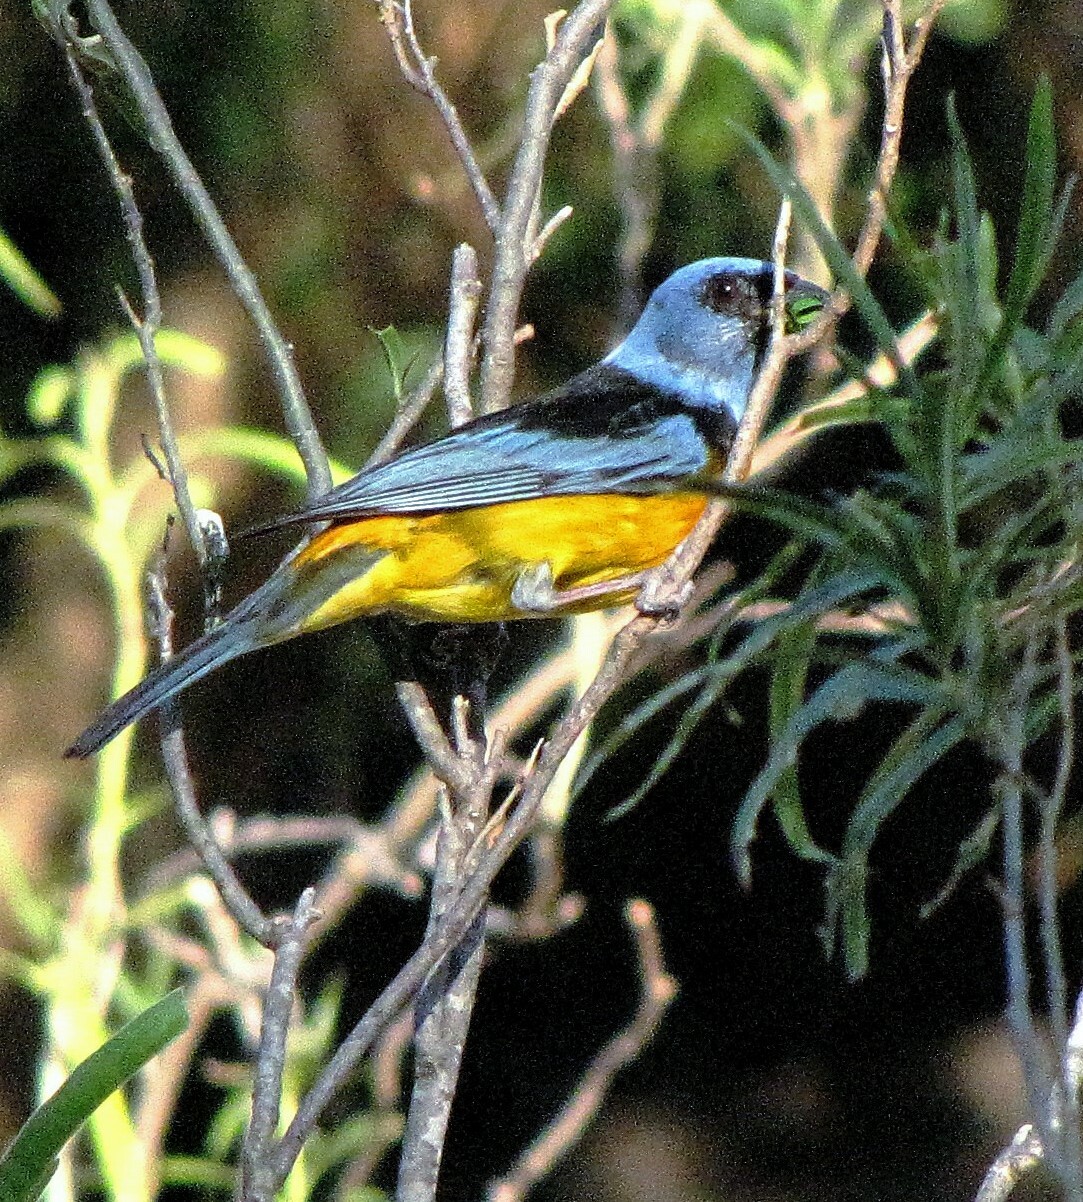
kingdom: Animalia
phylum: Chordata
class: Aves
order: Passeriformes
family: Thraupidae
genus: Rauenia
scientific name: Rauenia bonariensis
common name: Blue-and-yellow tanager
